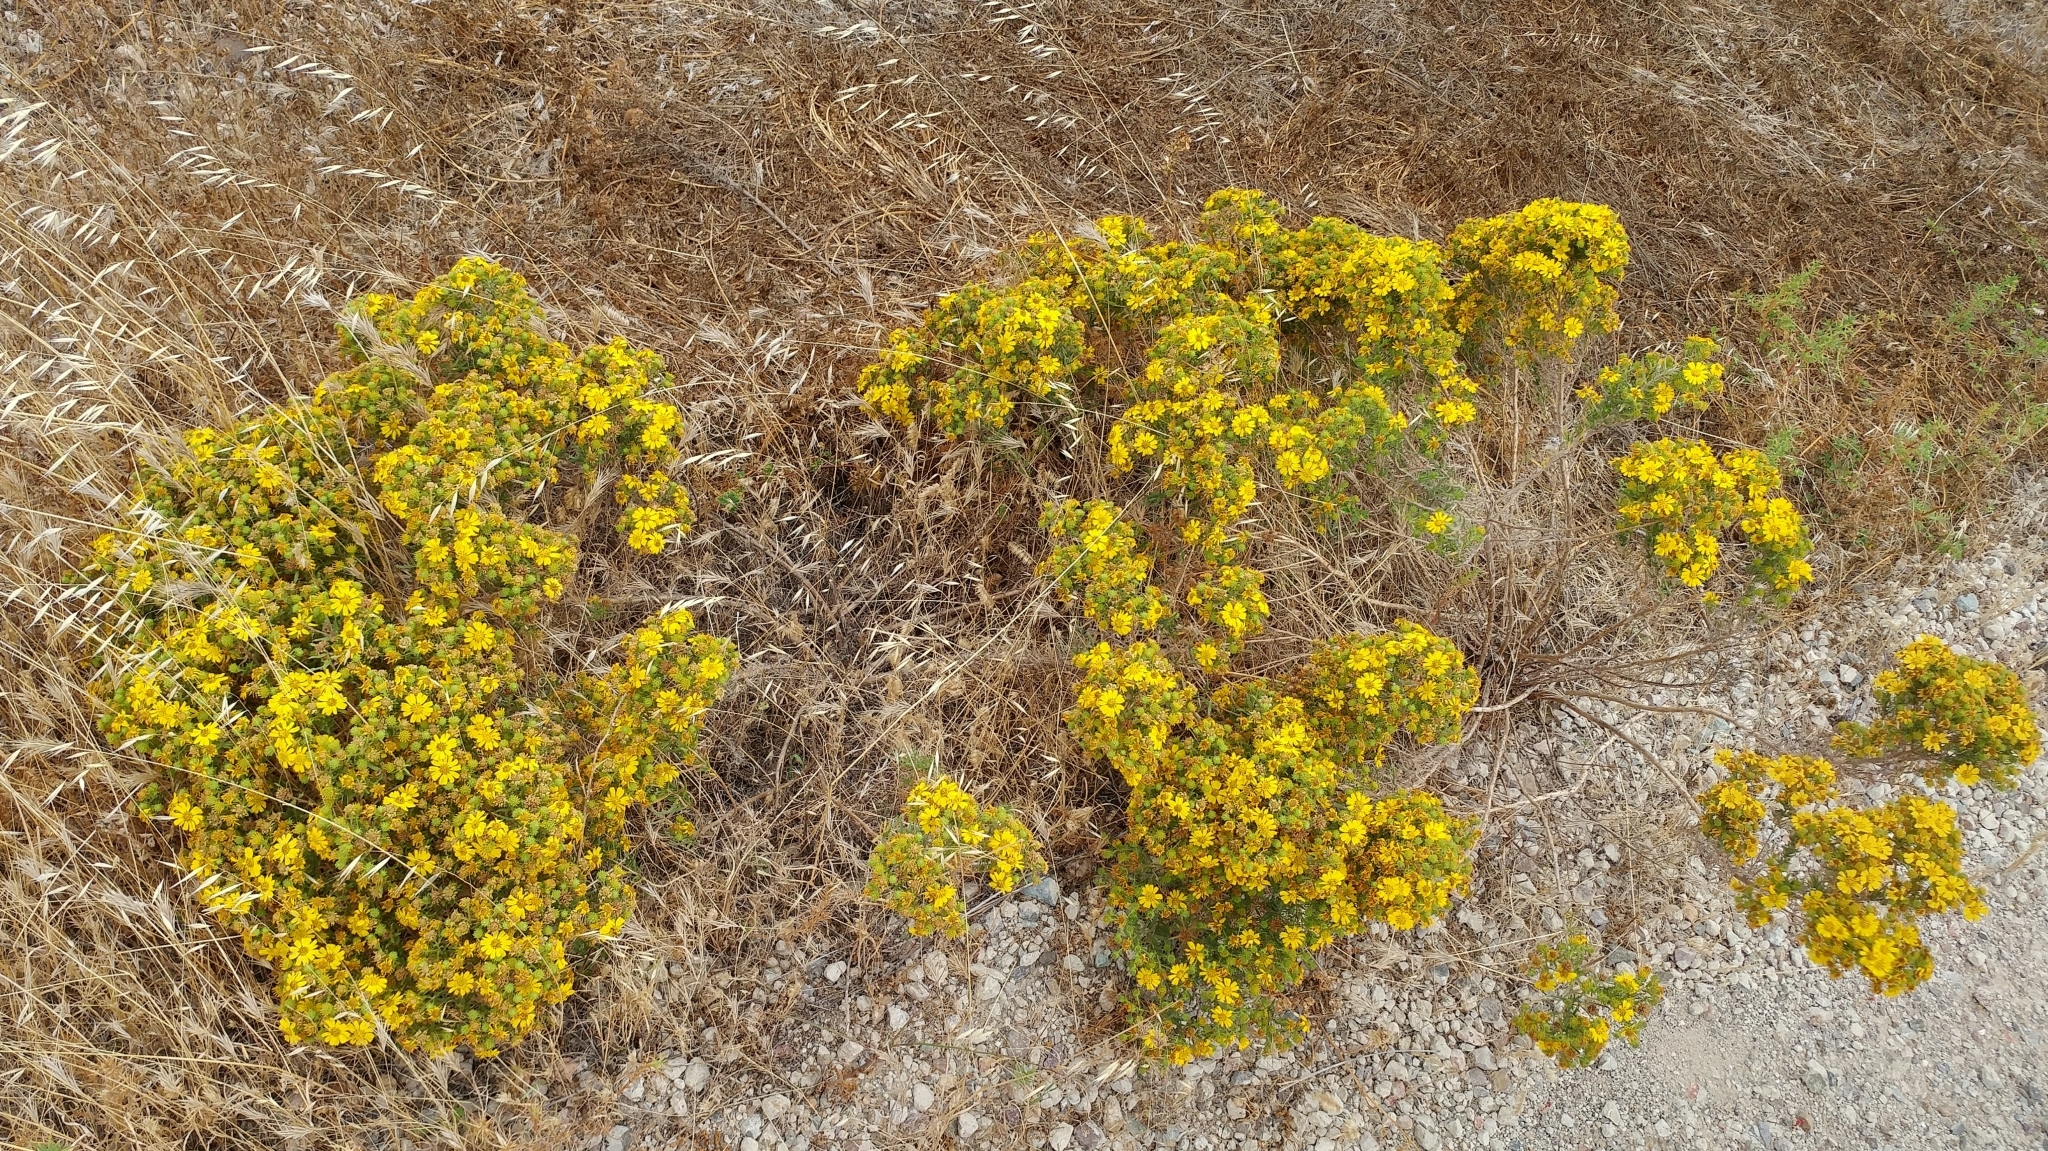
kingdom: Plantae
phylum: Tracheophyta
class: Magnoliopsida
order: Asterales
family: Asteraceae
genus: Deinandra
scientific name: Deinandra clementina
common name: Island tarplant
